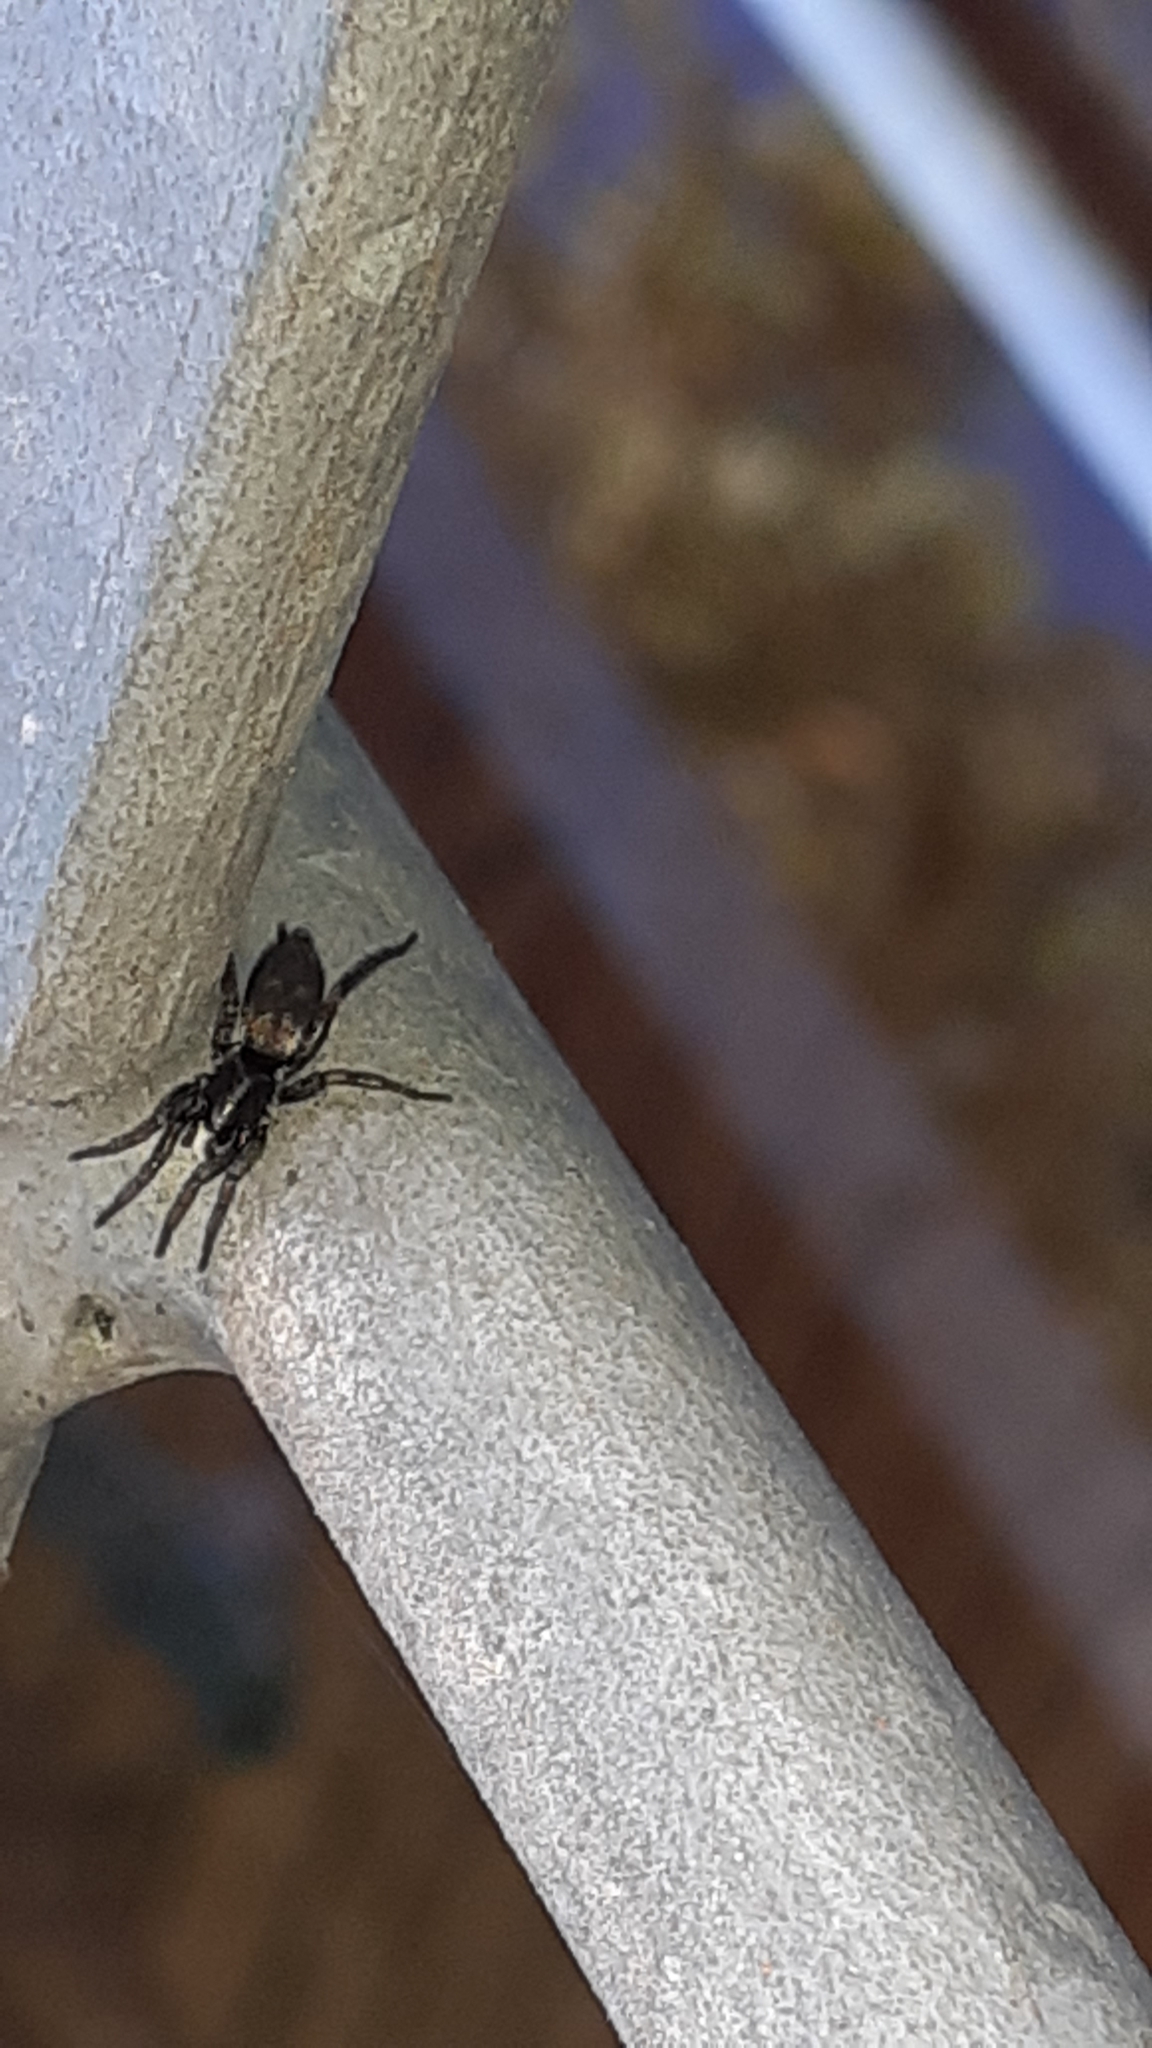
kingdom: Animalia
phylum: Arthropoda
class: Arachnida
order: Araneae
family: Salticidae
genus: Menemerus
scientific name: Menemerus bivittatus
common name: Gray wall jumper
